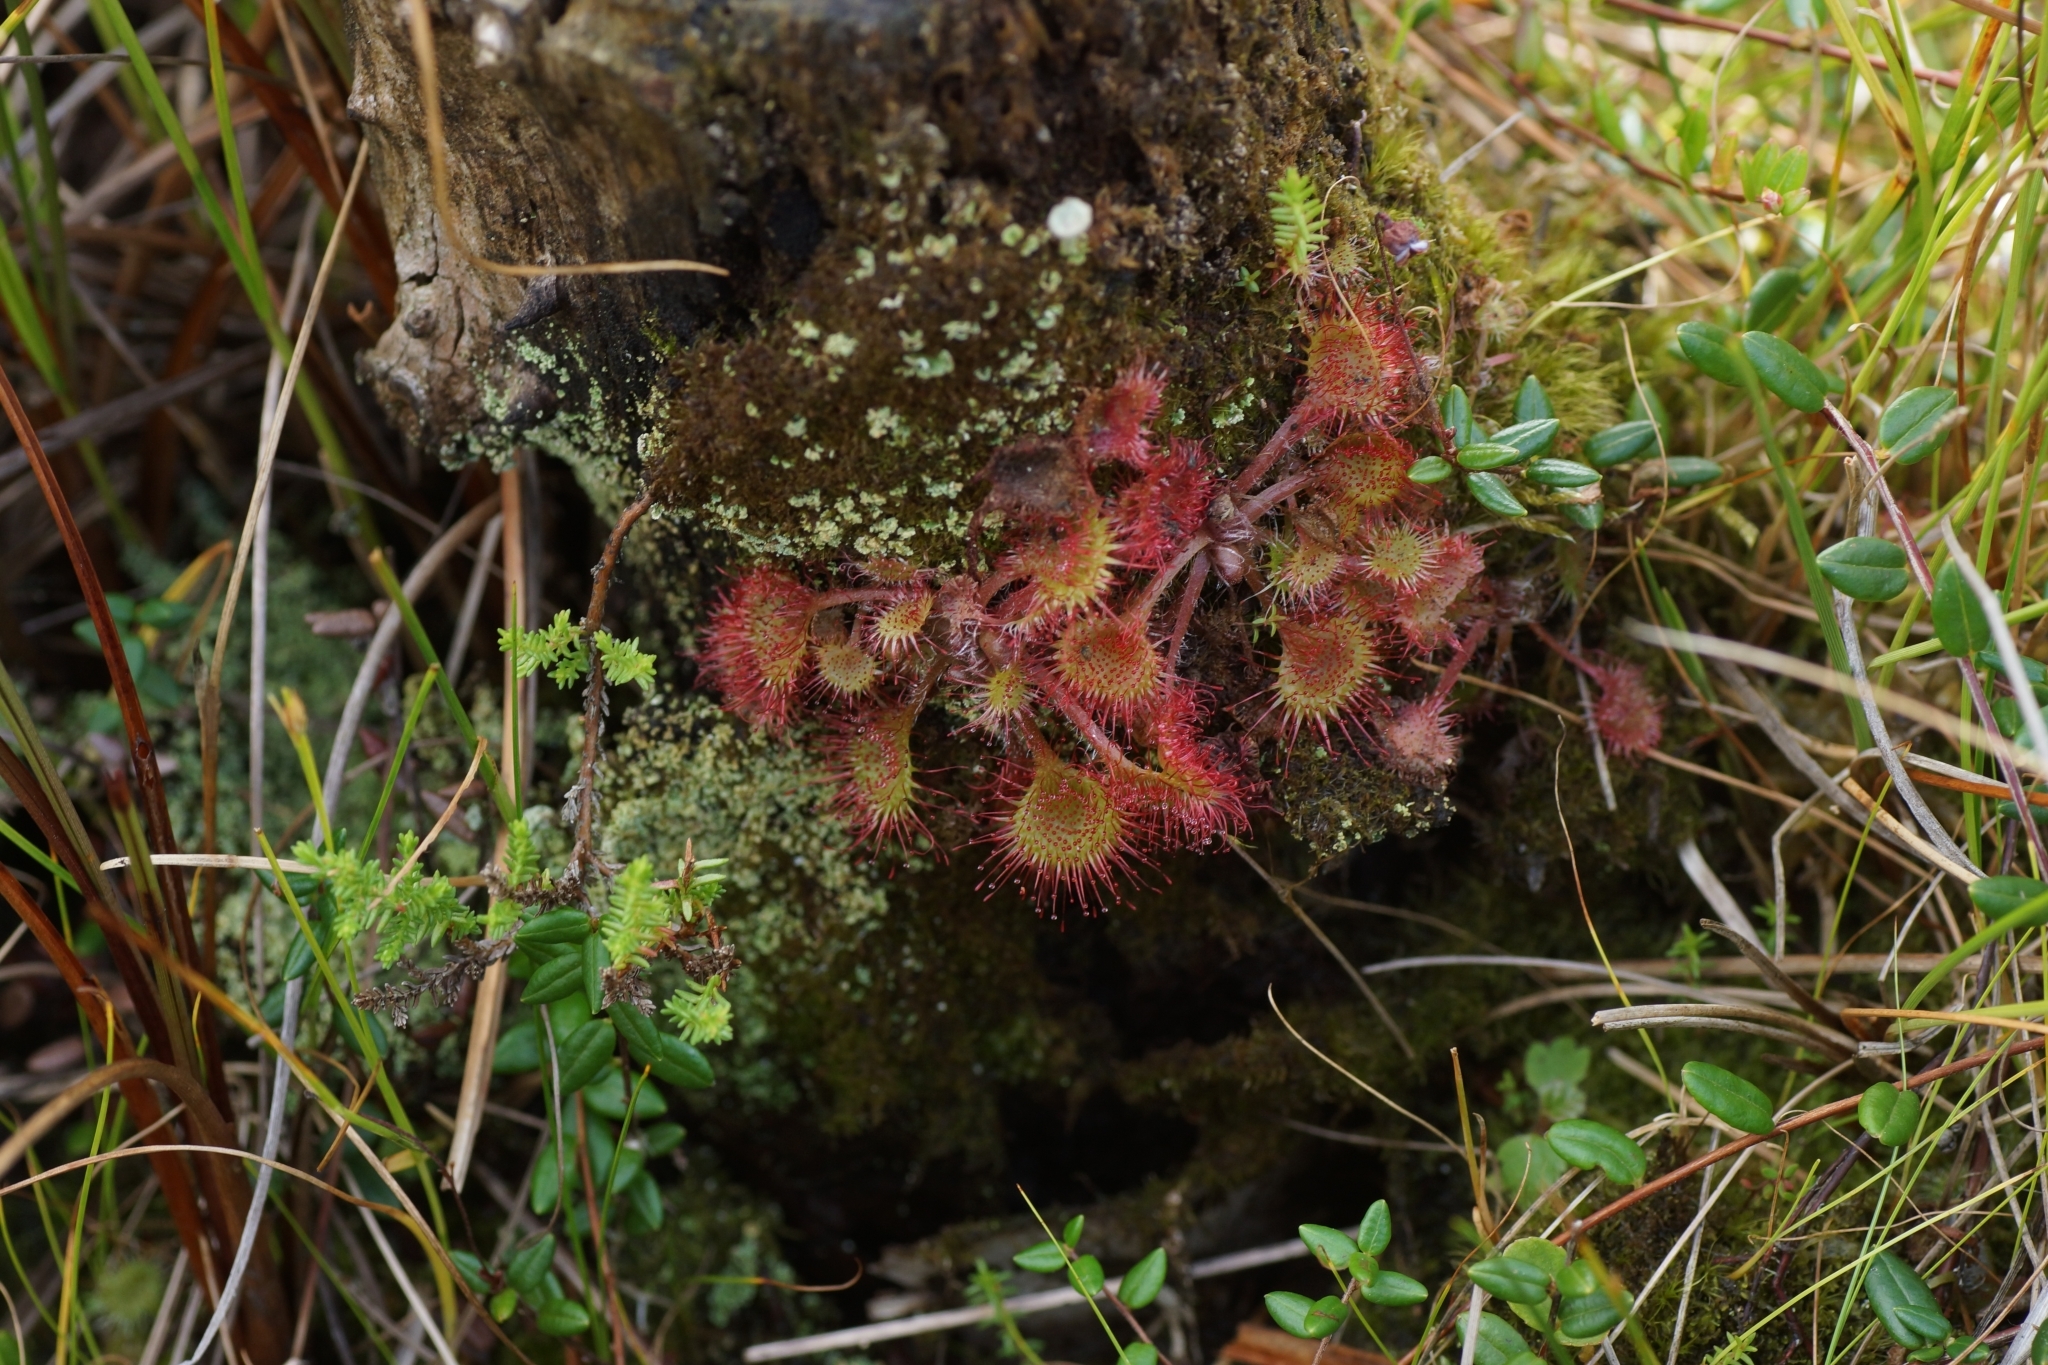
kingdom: Plantae
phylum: Tracheophyta
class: Magnoliopsida
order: Caryophyllales
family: Droseraceae
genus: Drosera
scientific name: Drosera rotundifolia
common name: Round-leaved sundew
